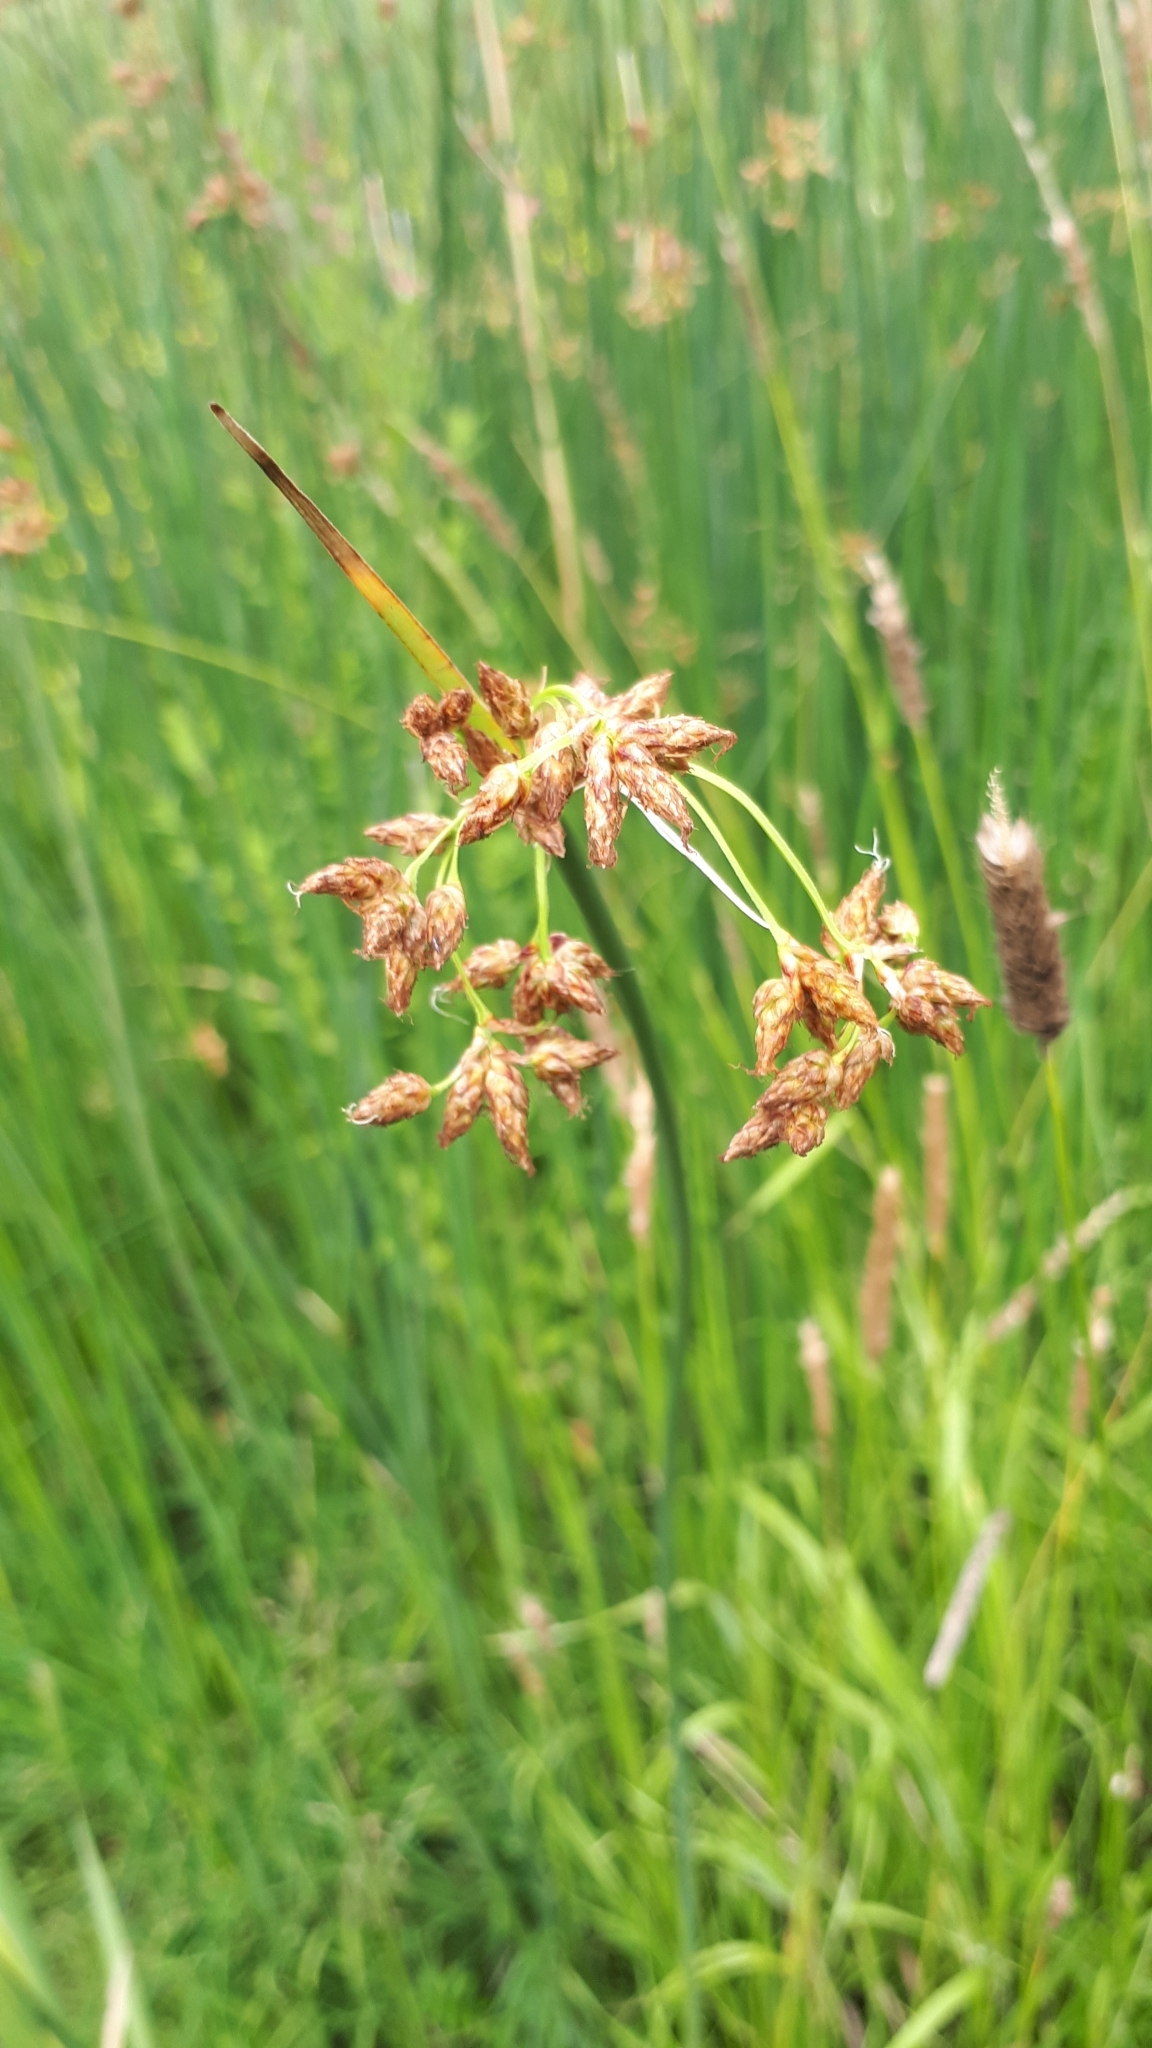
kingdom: Plantae
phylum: Tracheophyta
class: Liliopsida
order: Poales
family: Cyperaceae
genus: Schoenoplectus
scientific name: Schoenoplectus lacustris
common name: Common club-rush
